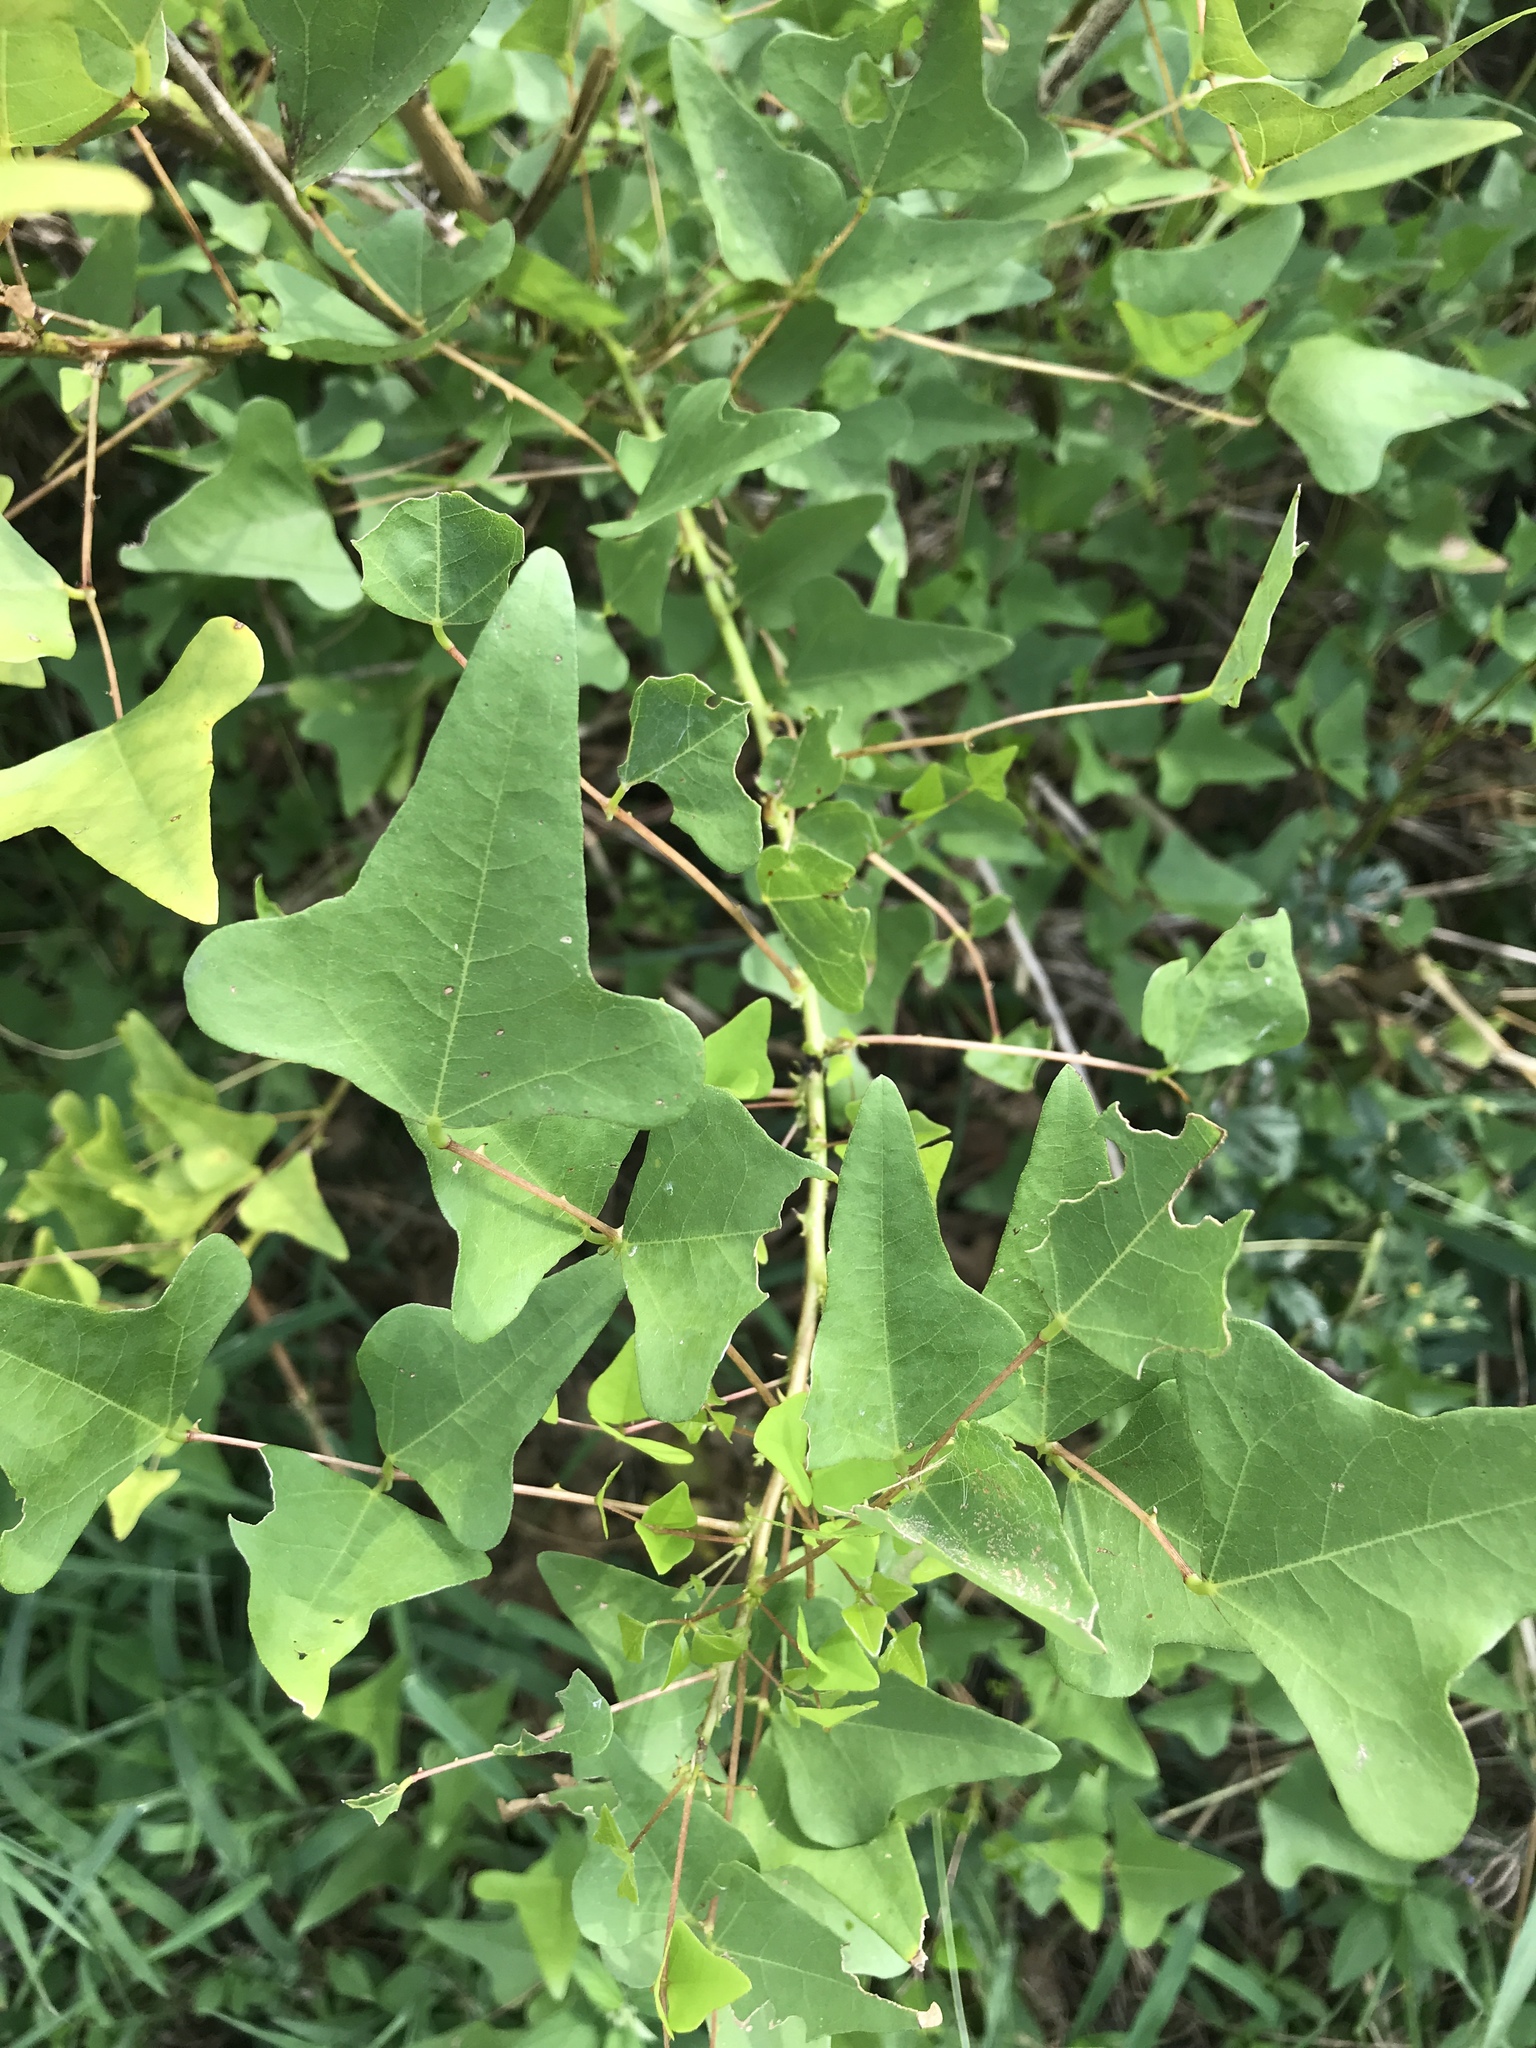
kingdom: Plantae
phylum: Tracheophyta
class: Magnoliopsida
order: Fabales
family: Fabaceae
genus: Erythrina
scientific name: Erythrina herbacea
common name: Coral-bean
